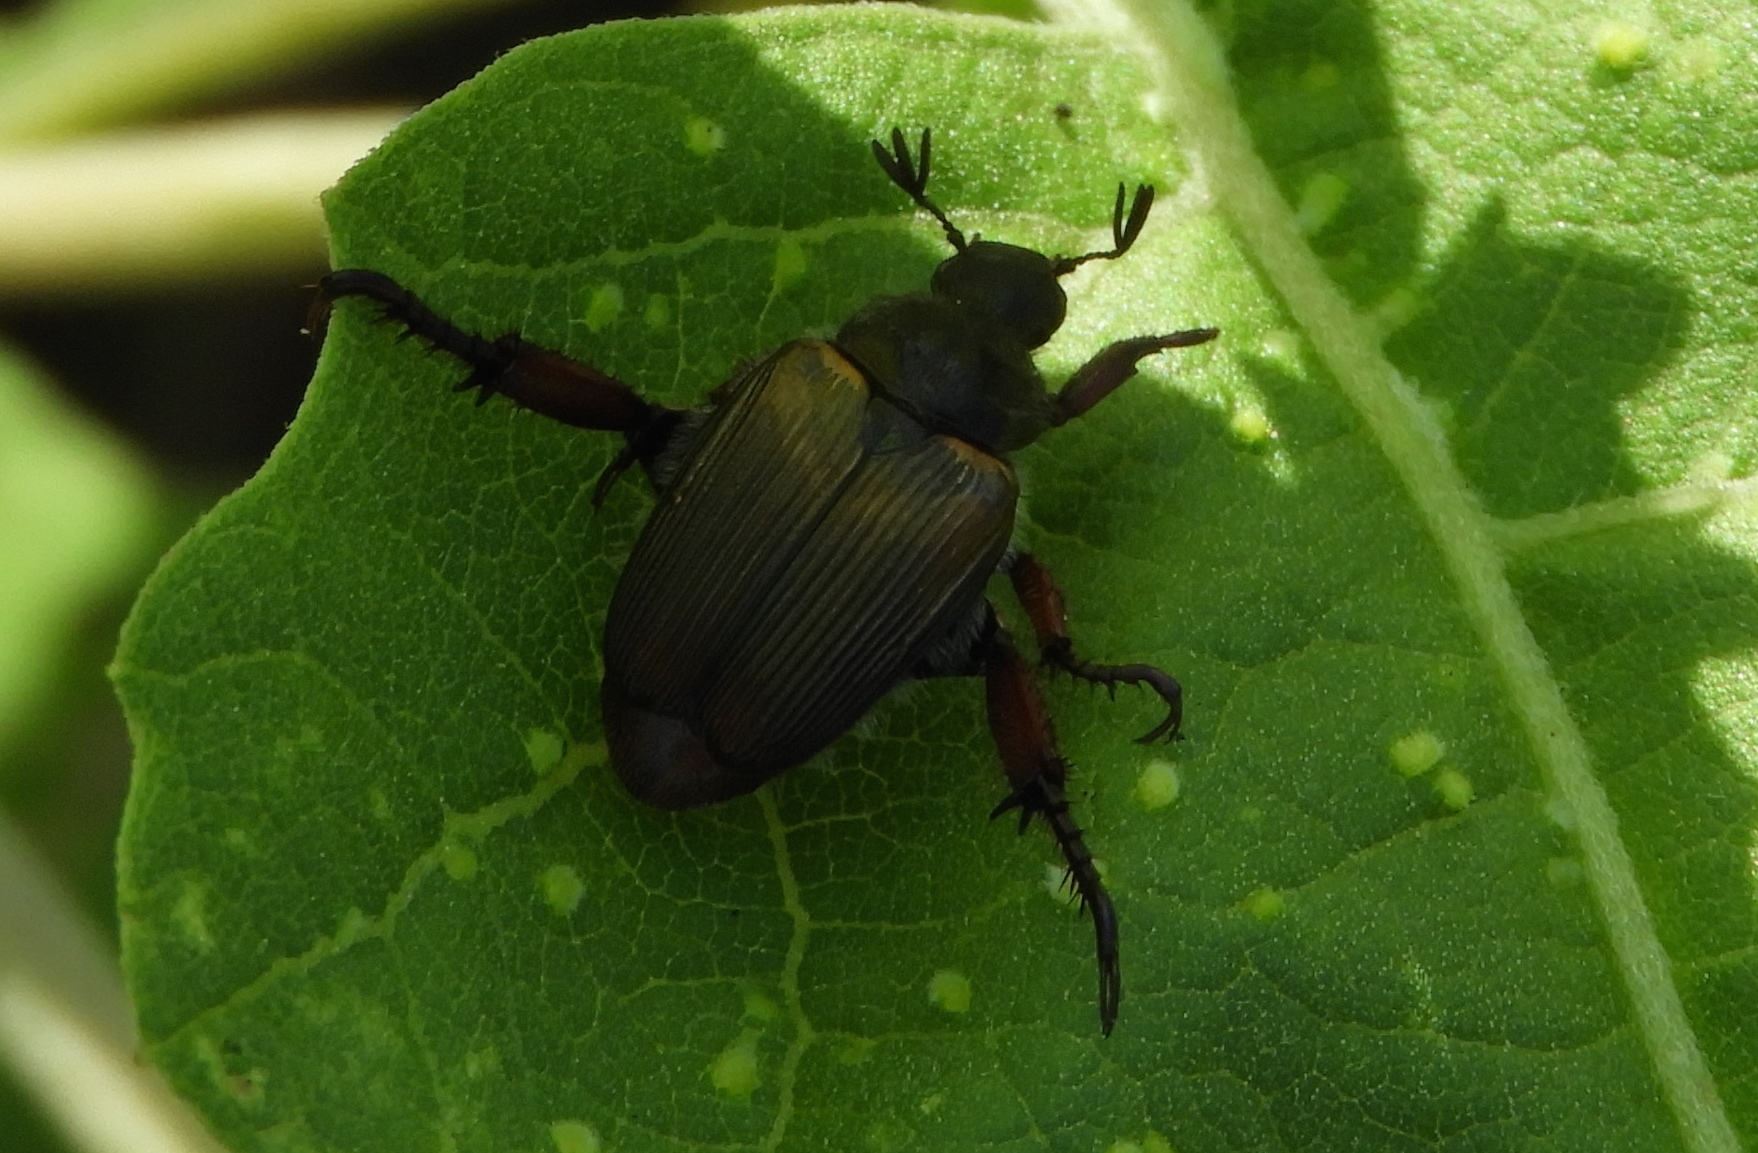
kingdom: Animalia
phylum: Arthropoda
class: Insecta
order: Coleoptera
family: Scarabaeidae
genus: Strigoderma
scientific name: Strigoderma
